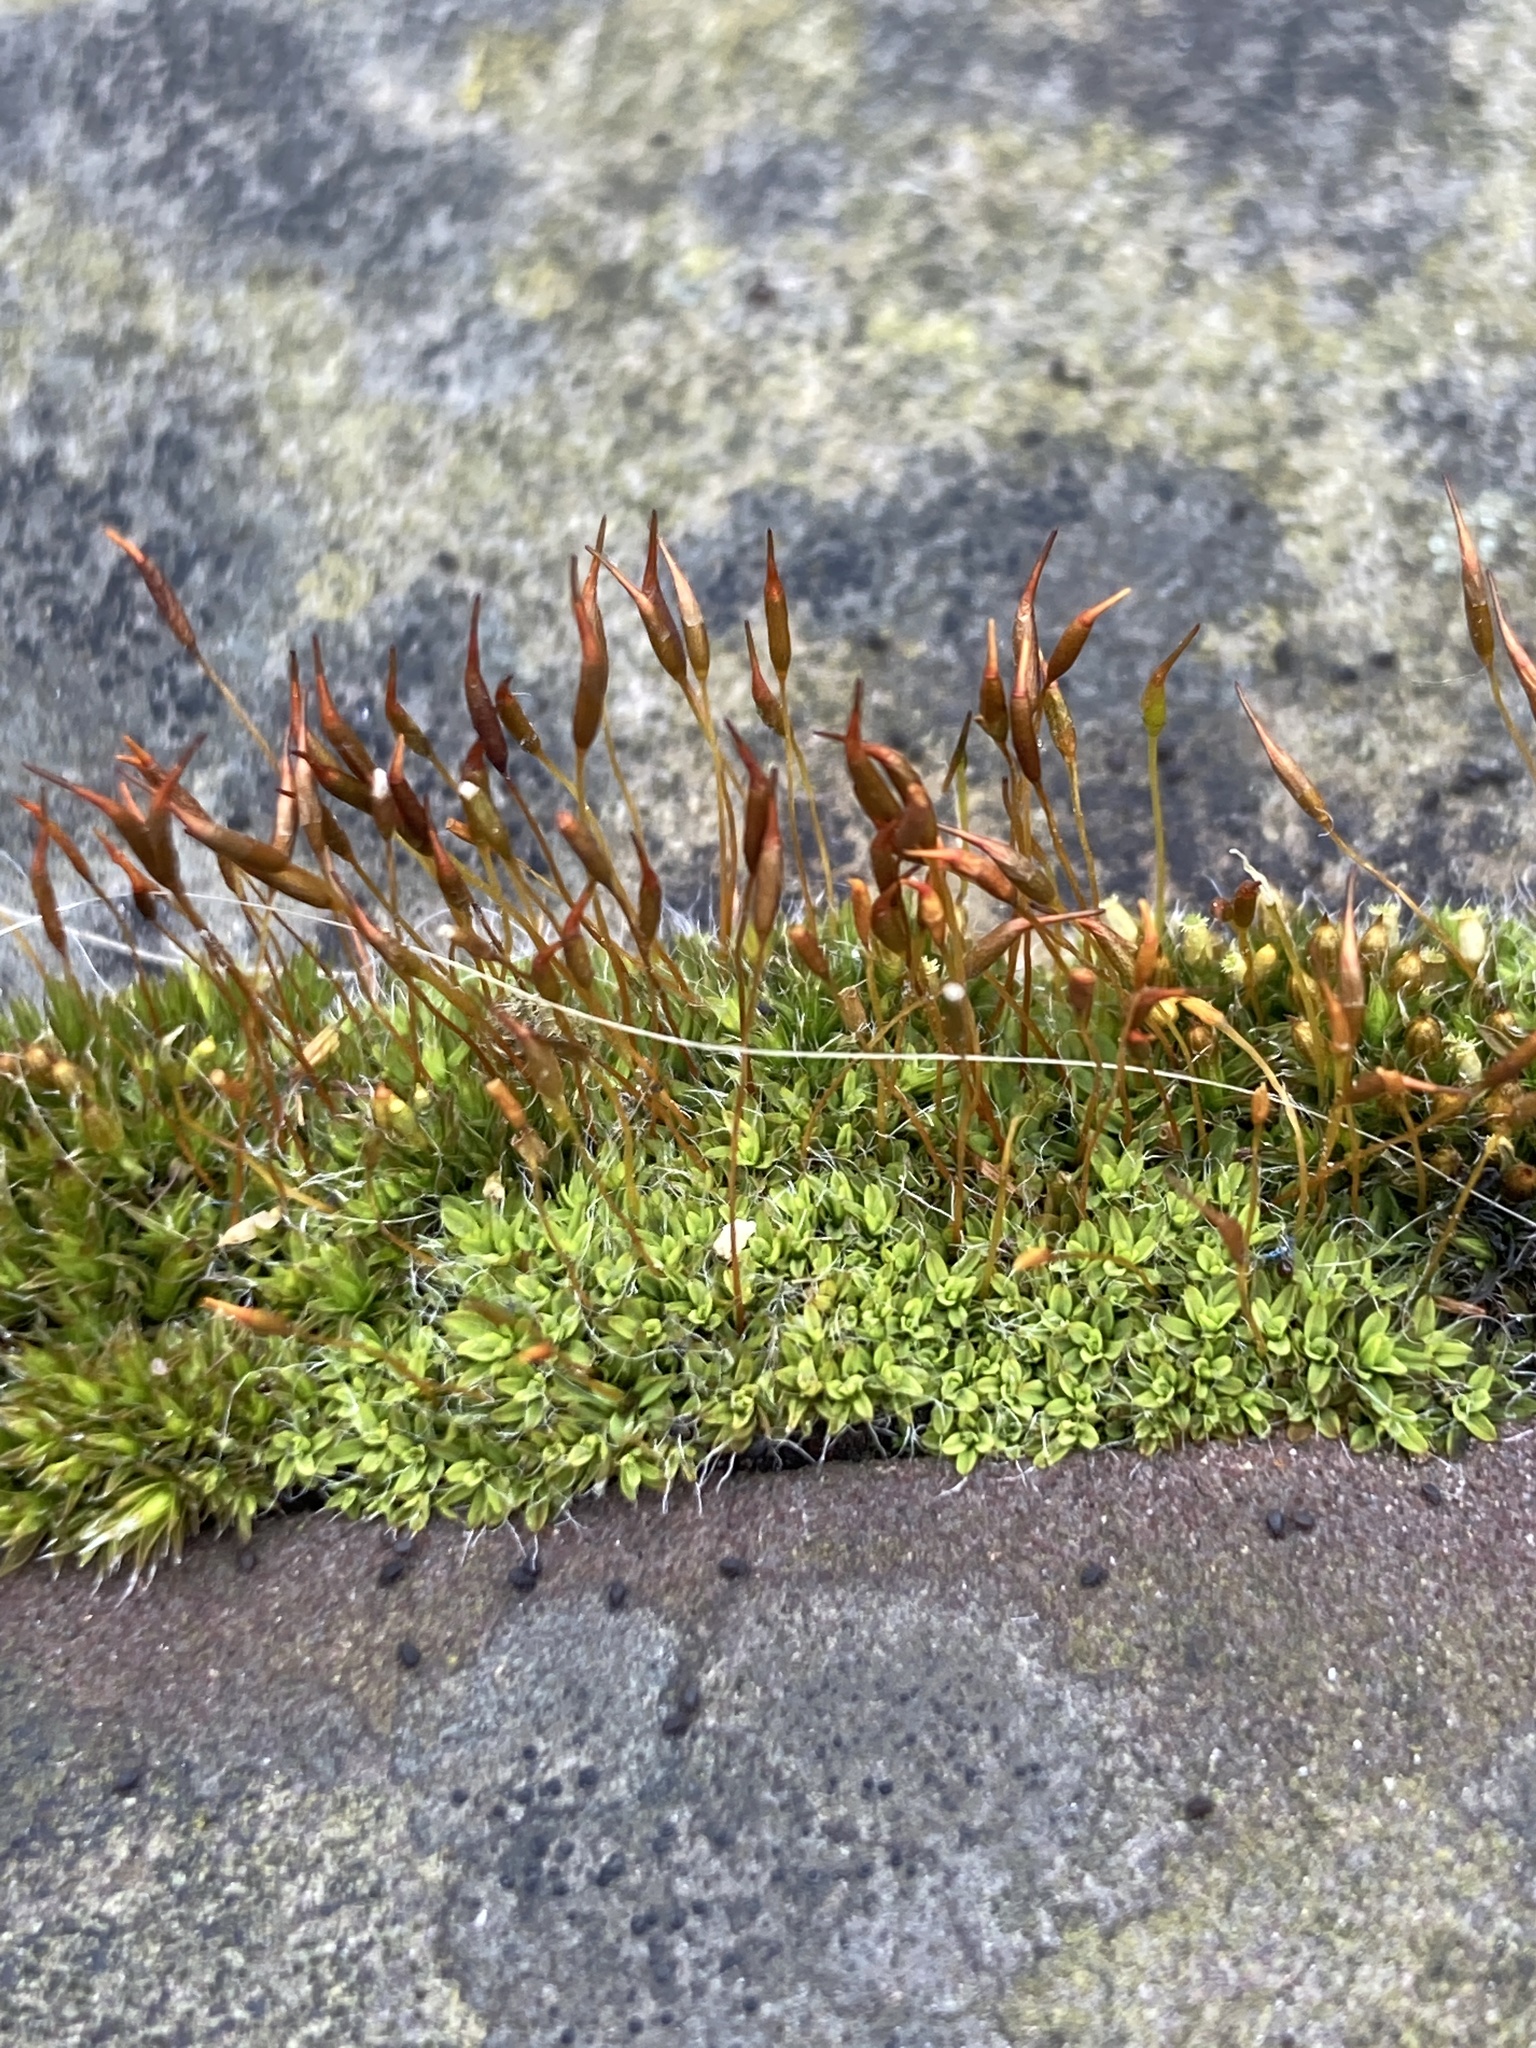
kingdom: Plantae
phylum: Bryophyta
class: Bryopsida
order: Pottiales
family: Pottiaceae
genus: Tortula
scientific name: Tortula muralis
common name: Wall screw-moss
